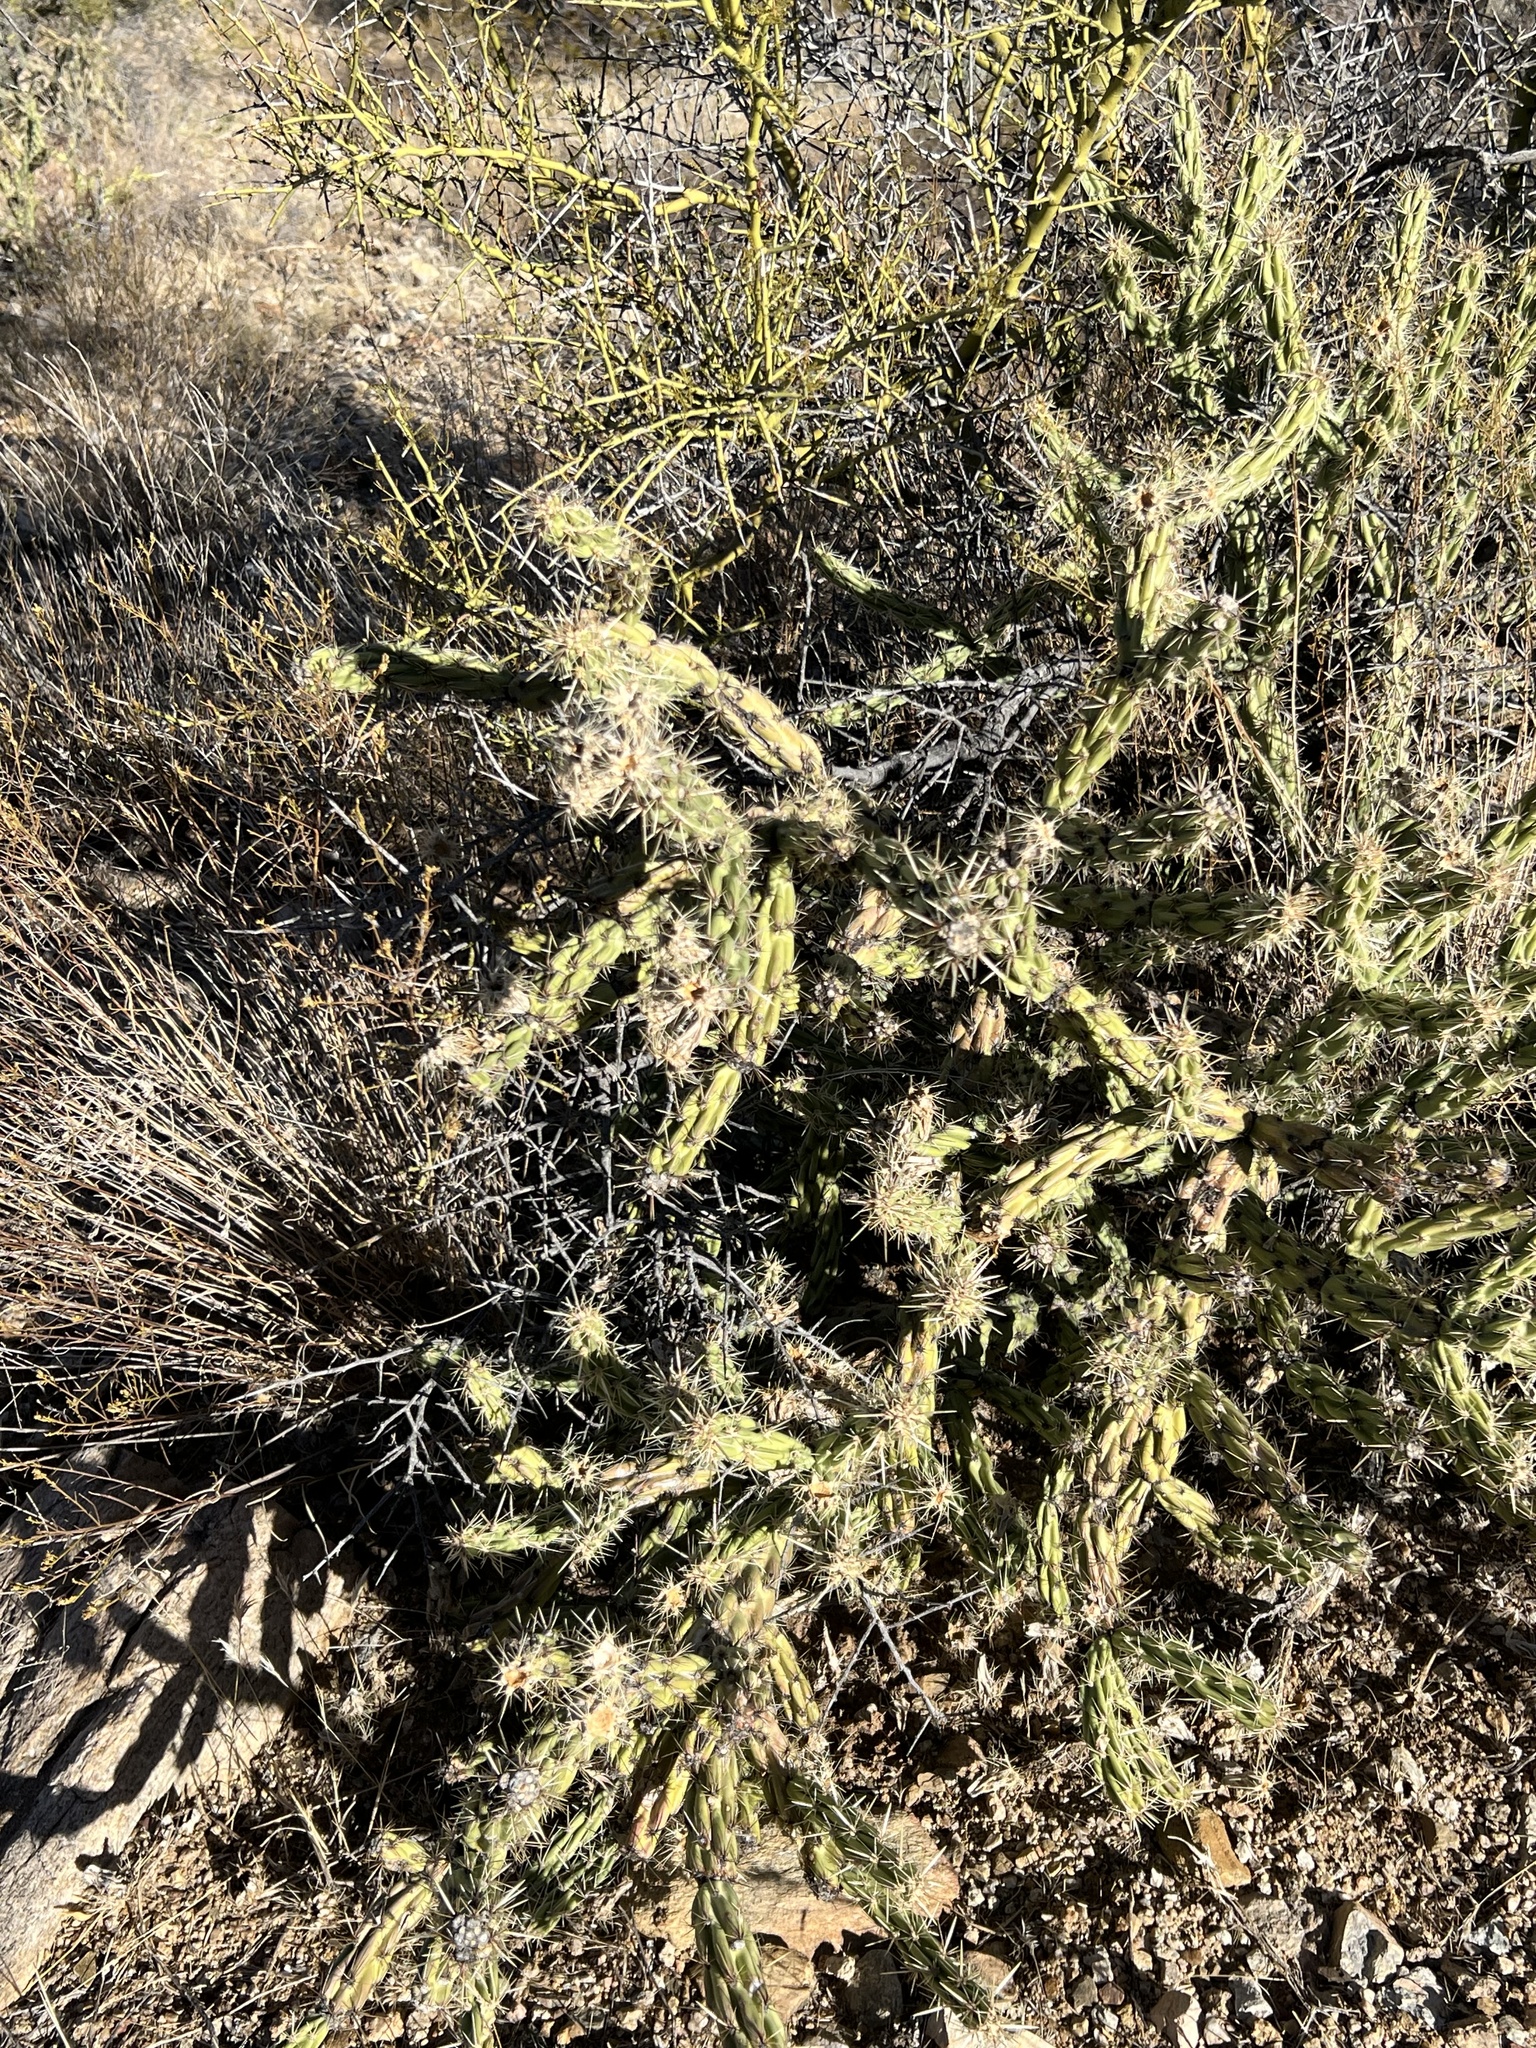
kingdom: Plantae
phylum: Tracheophyta
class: Magnoliopsida
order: Caryophyllales
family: Cactaceae
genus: Cylindropuntia
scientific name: Cylindropuntia acanthocarpa
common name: Buckhorn cholla
